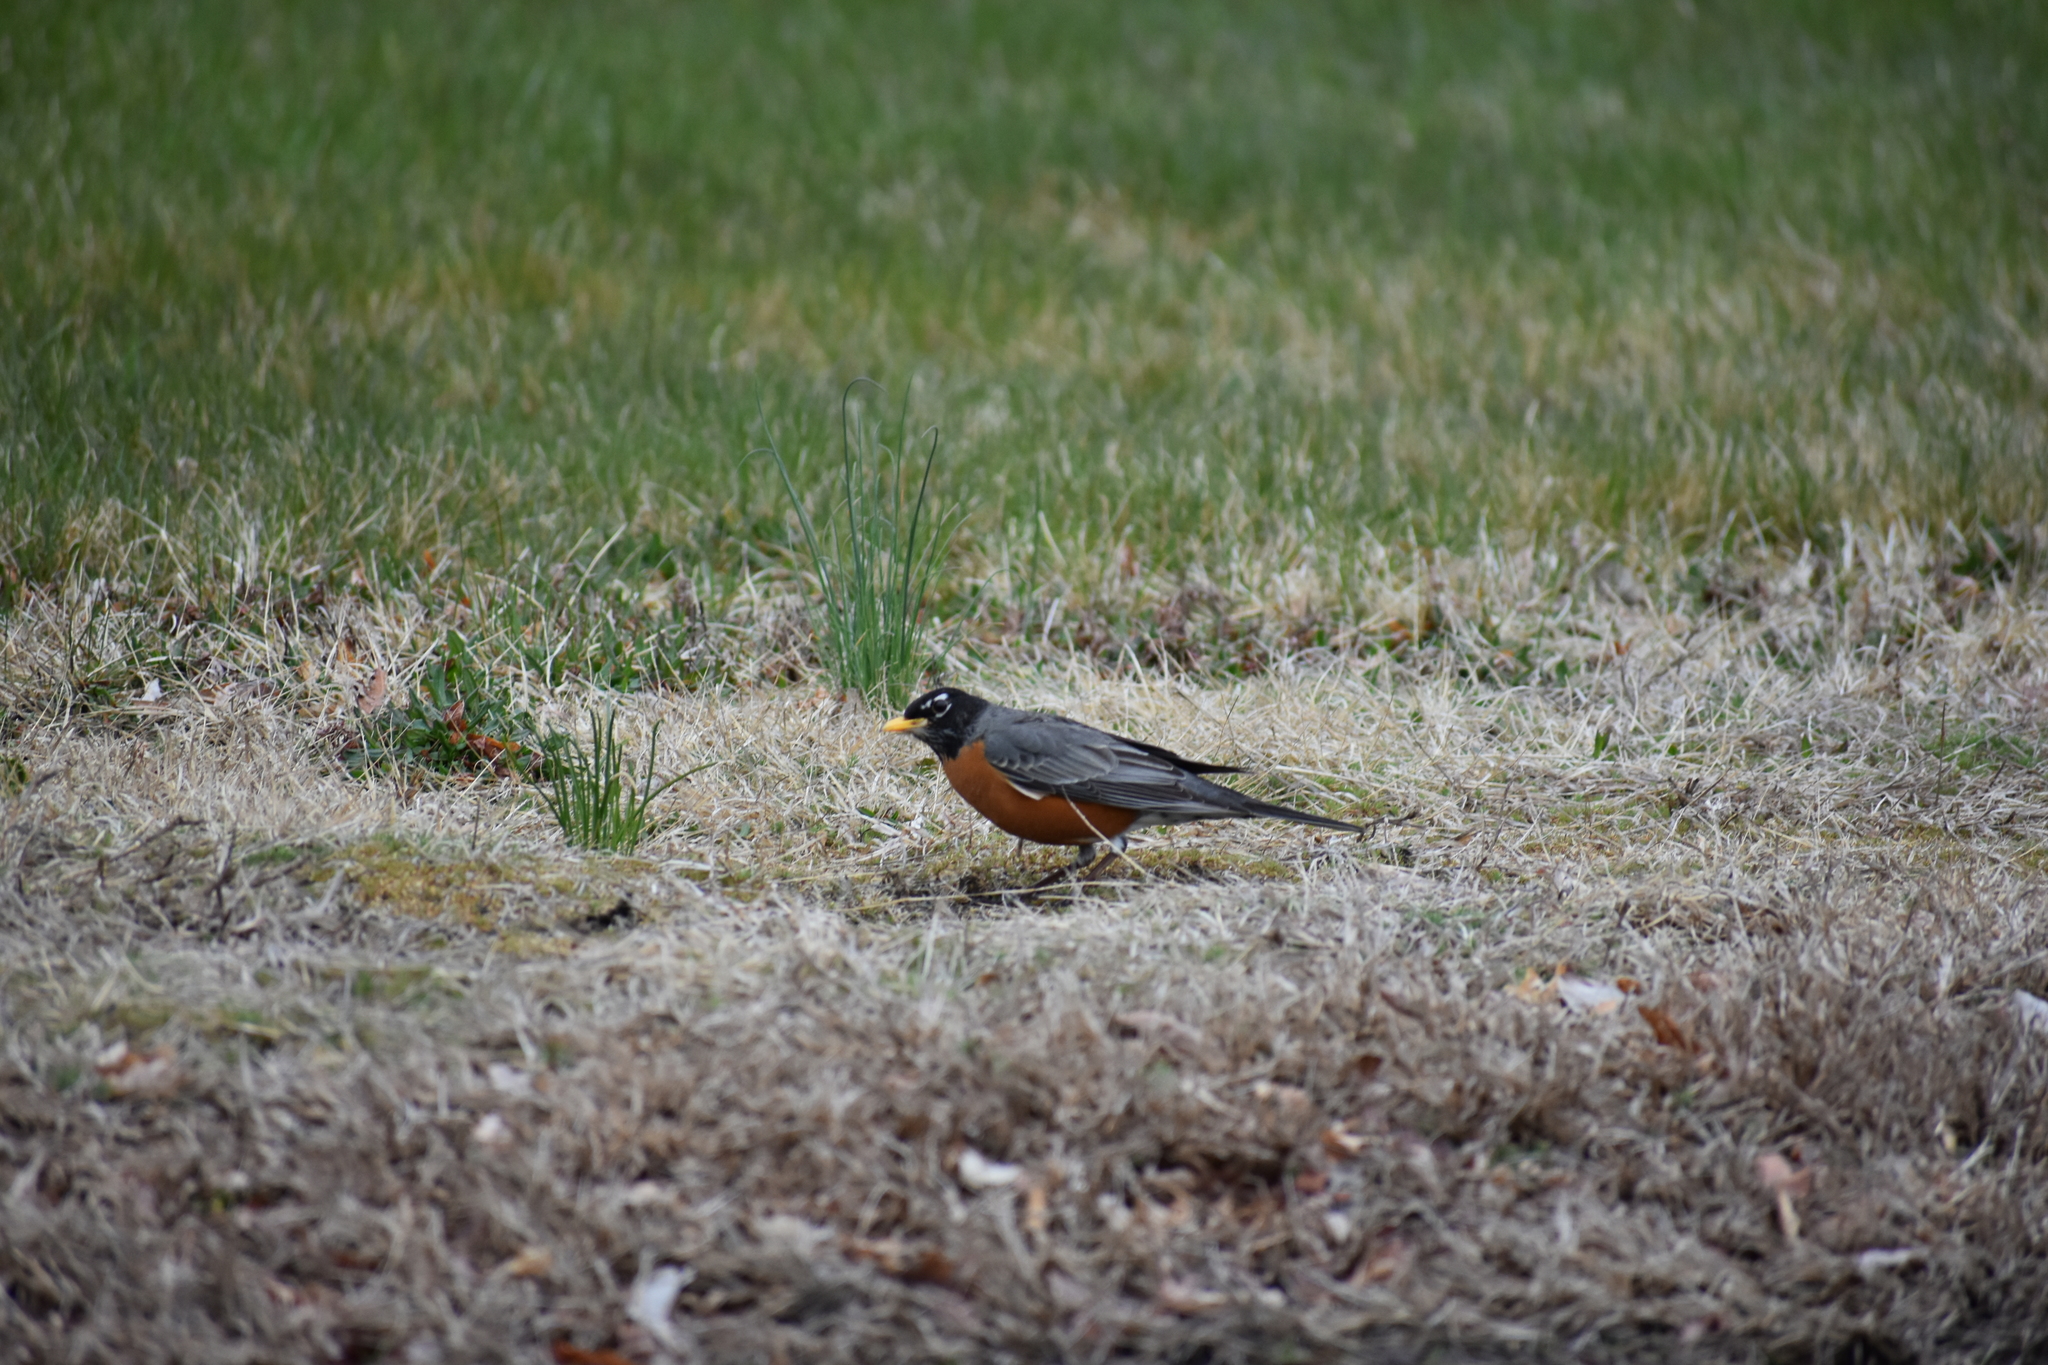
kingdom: Animalia
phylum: Chordata
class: Aves
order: Passeriformes
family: Turdidae
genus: Turdus
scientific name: Turdus migratorius
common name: American robin
